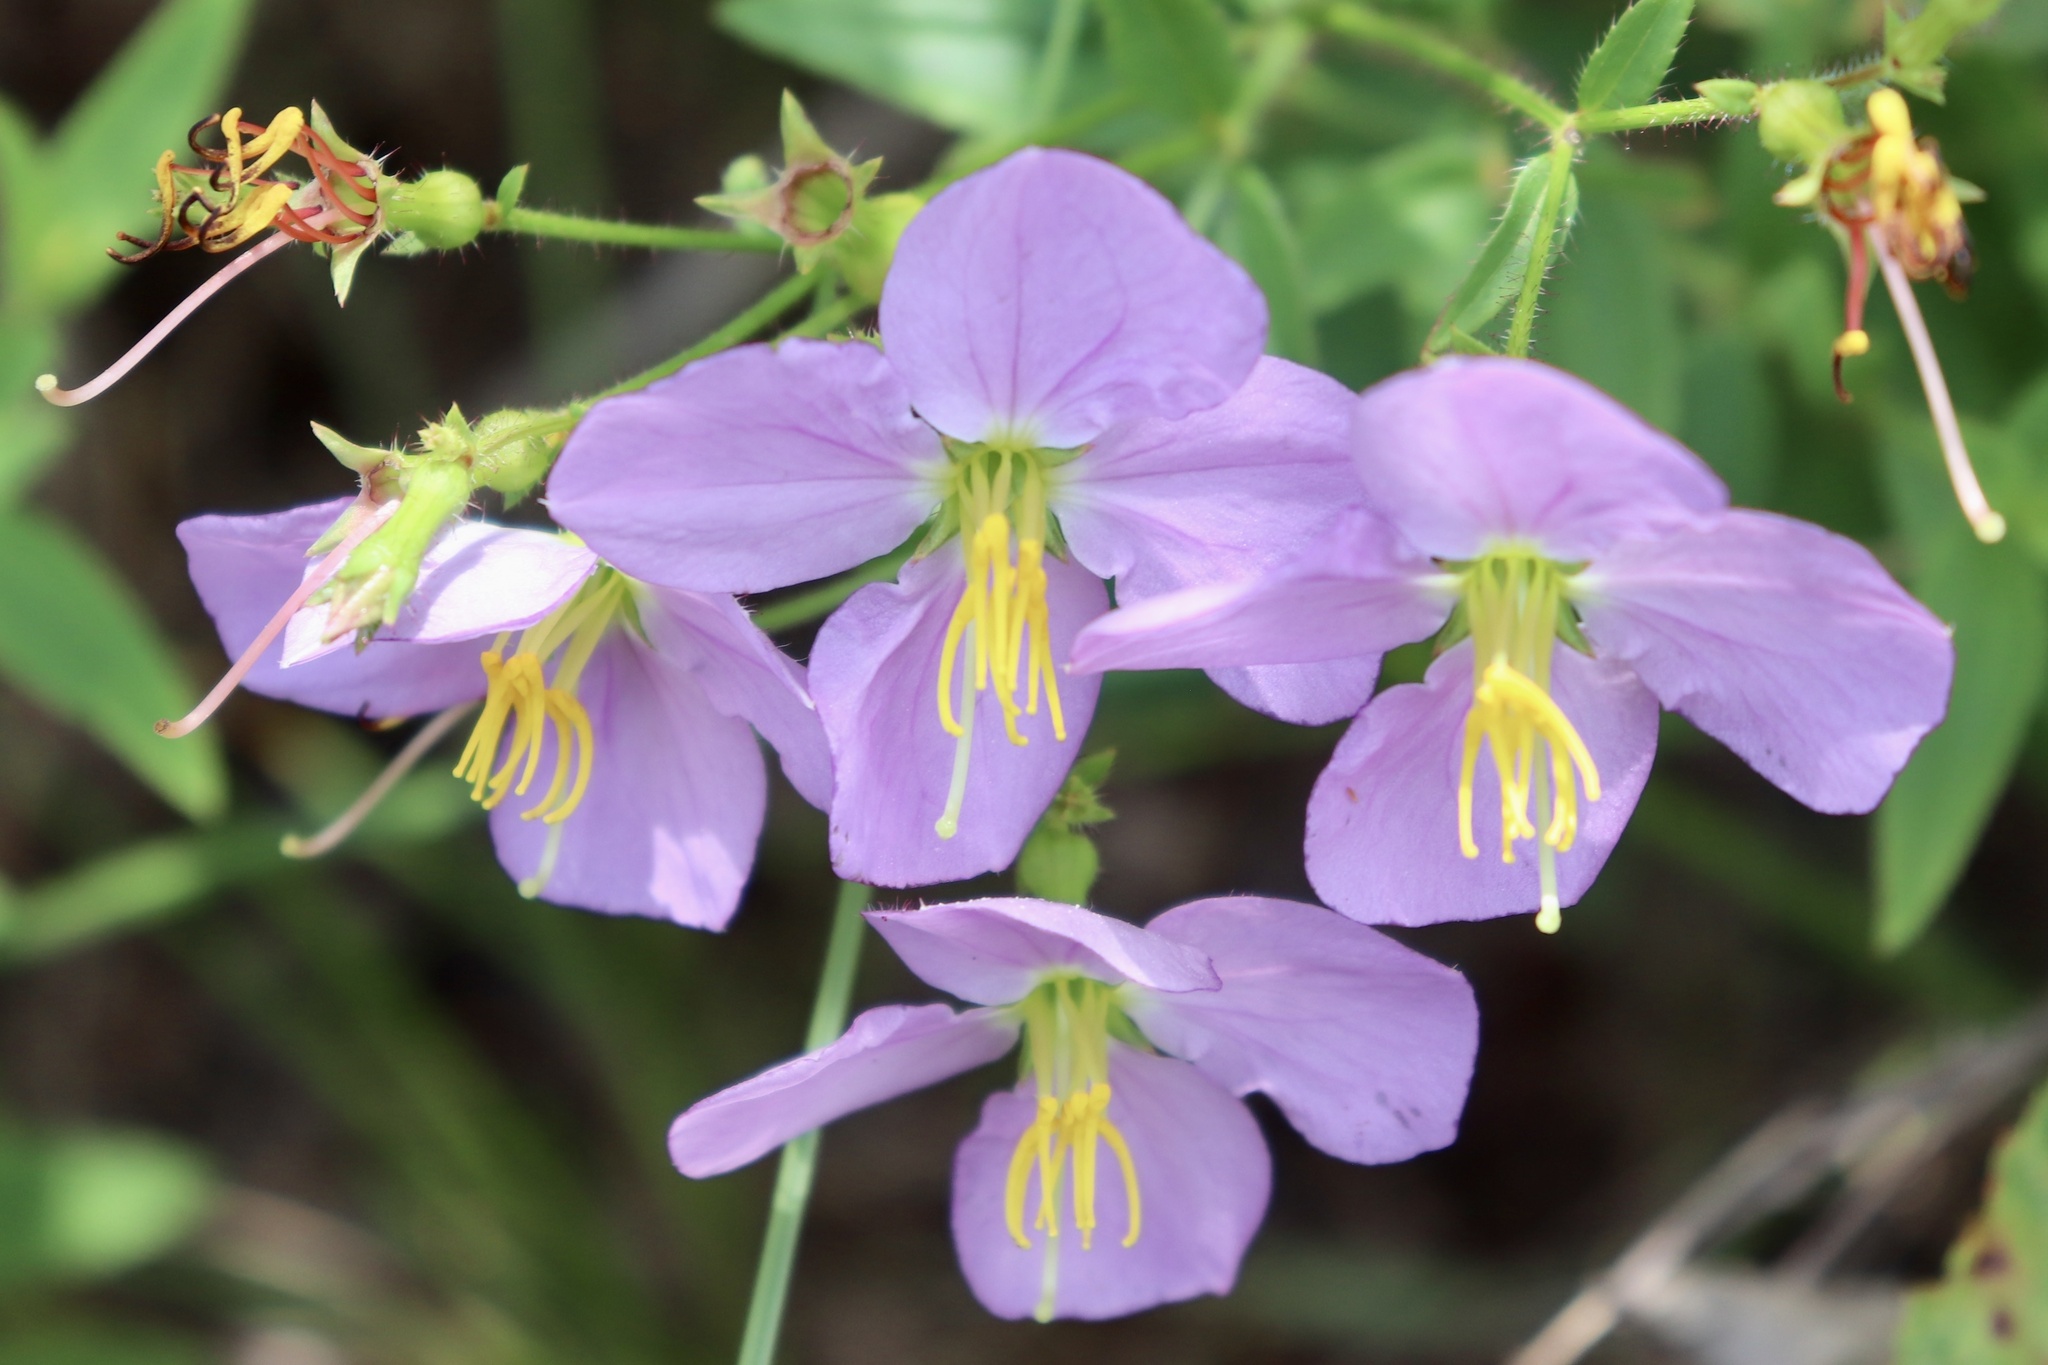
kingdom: Plantae
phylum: Tracheophyta
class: Magnoliopsida
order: Myrtales
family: Melastomataceae
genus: Rhexia
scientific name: Rhexia nashii
